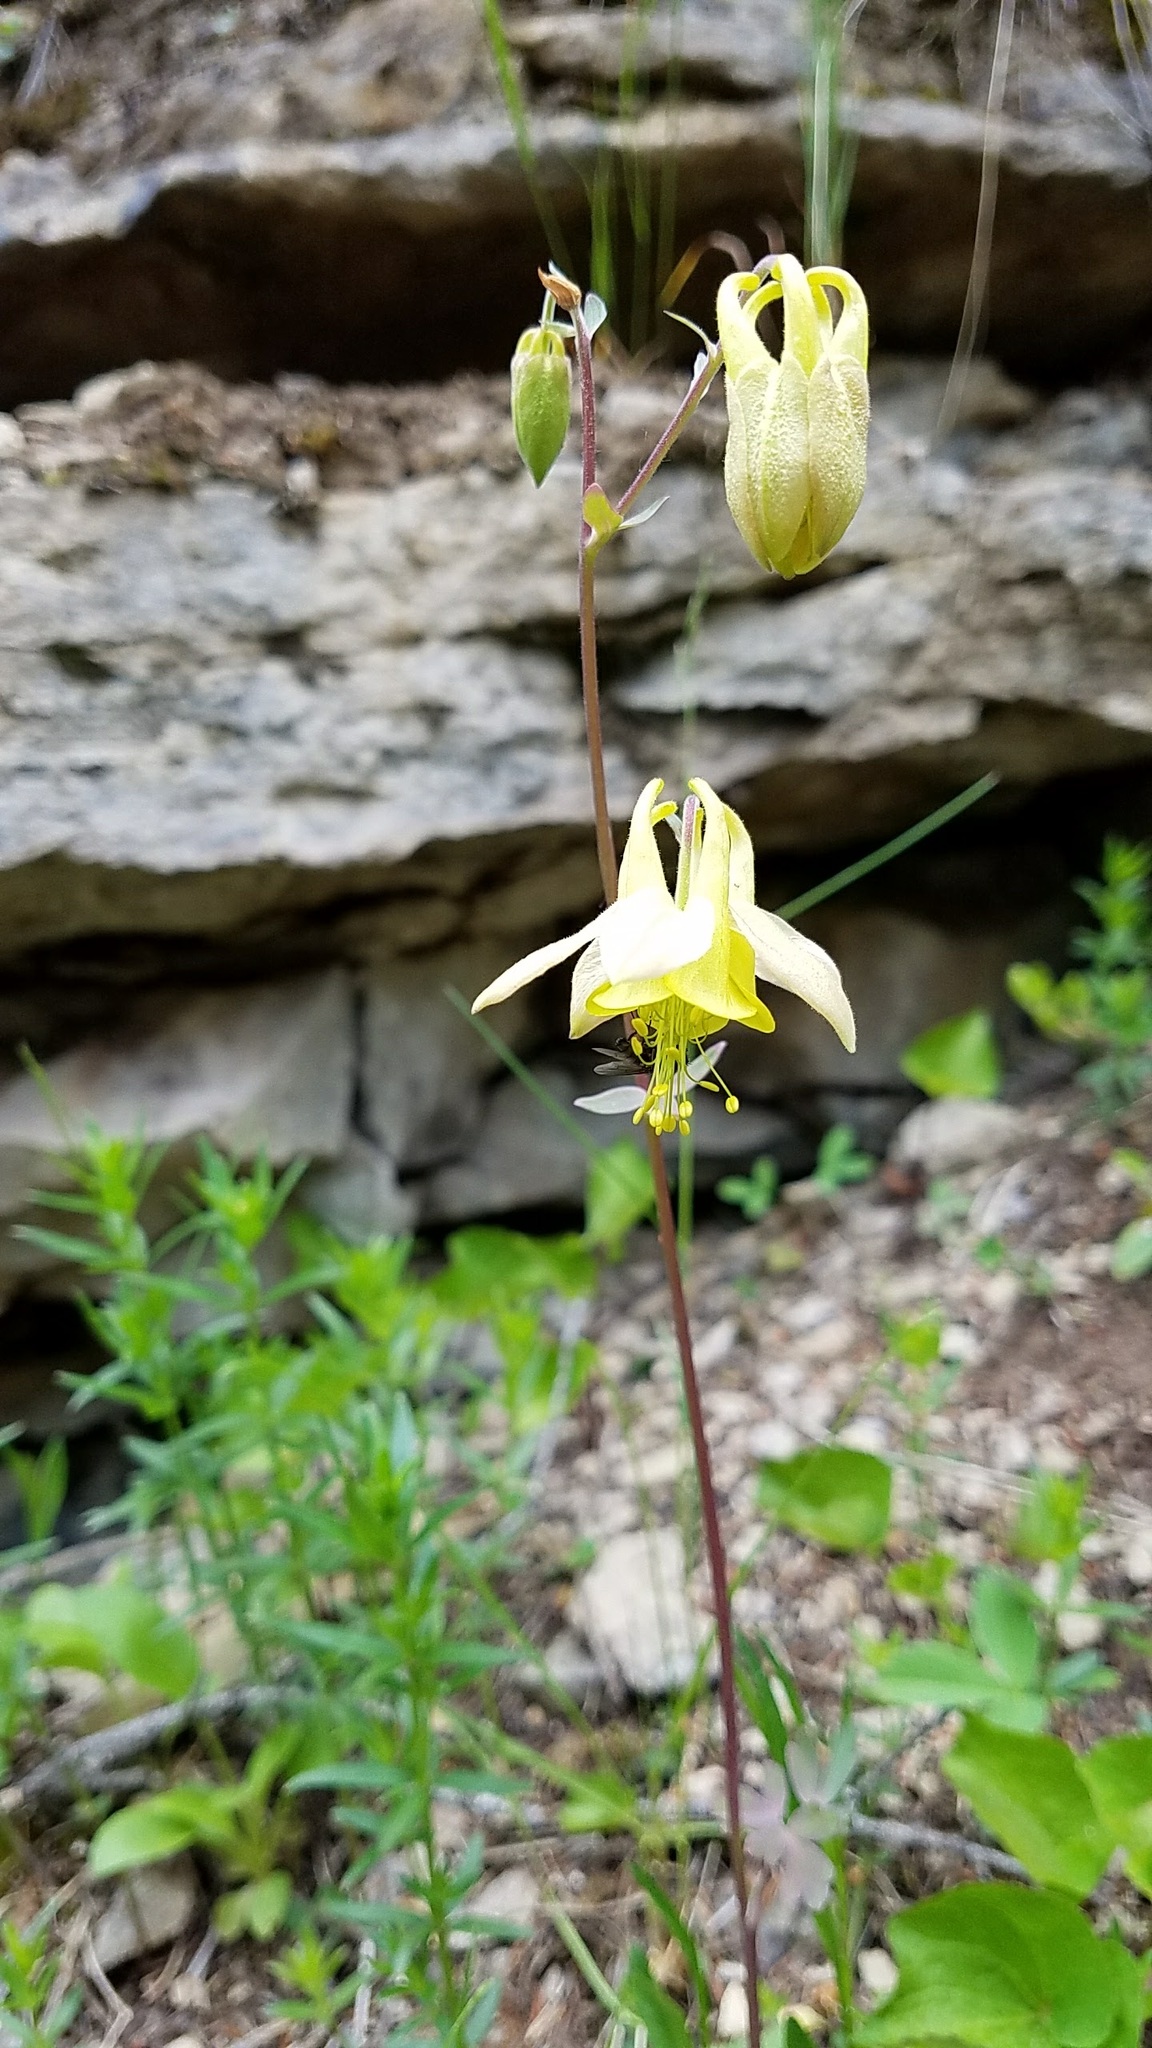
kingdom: Plantae
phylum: Tracheophyta
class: Magnoliopsida
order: Ranunculales
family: Ranunculaceae
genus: Aquilegia
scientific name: Aquilegia flavescens
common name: Yellow columbine
